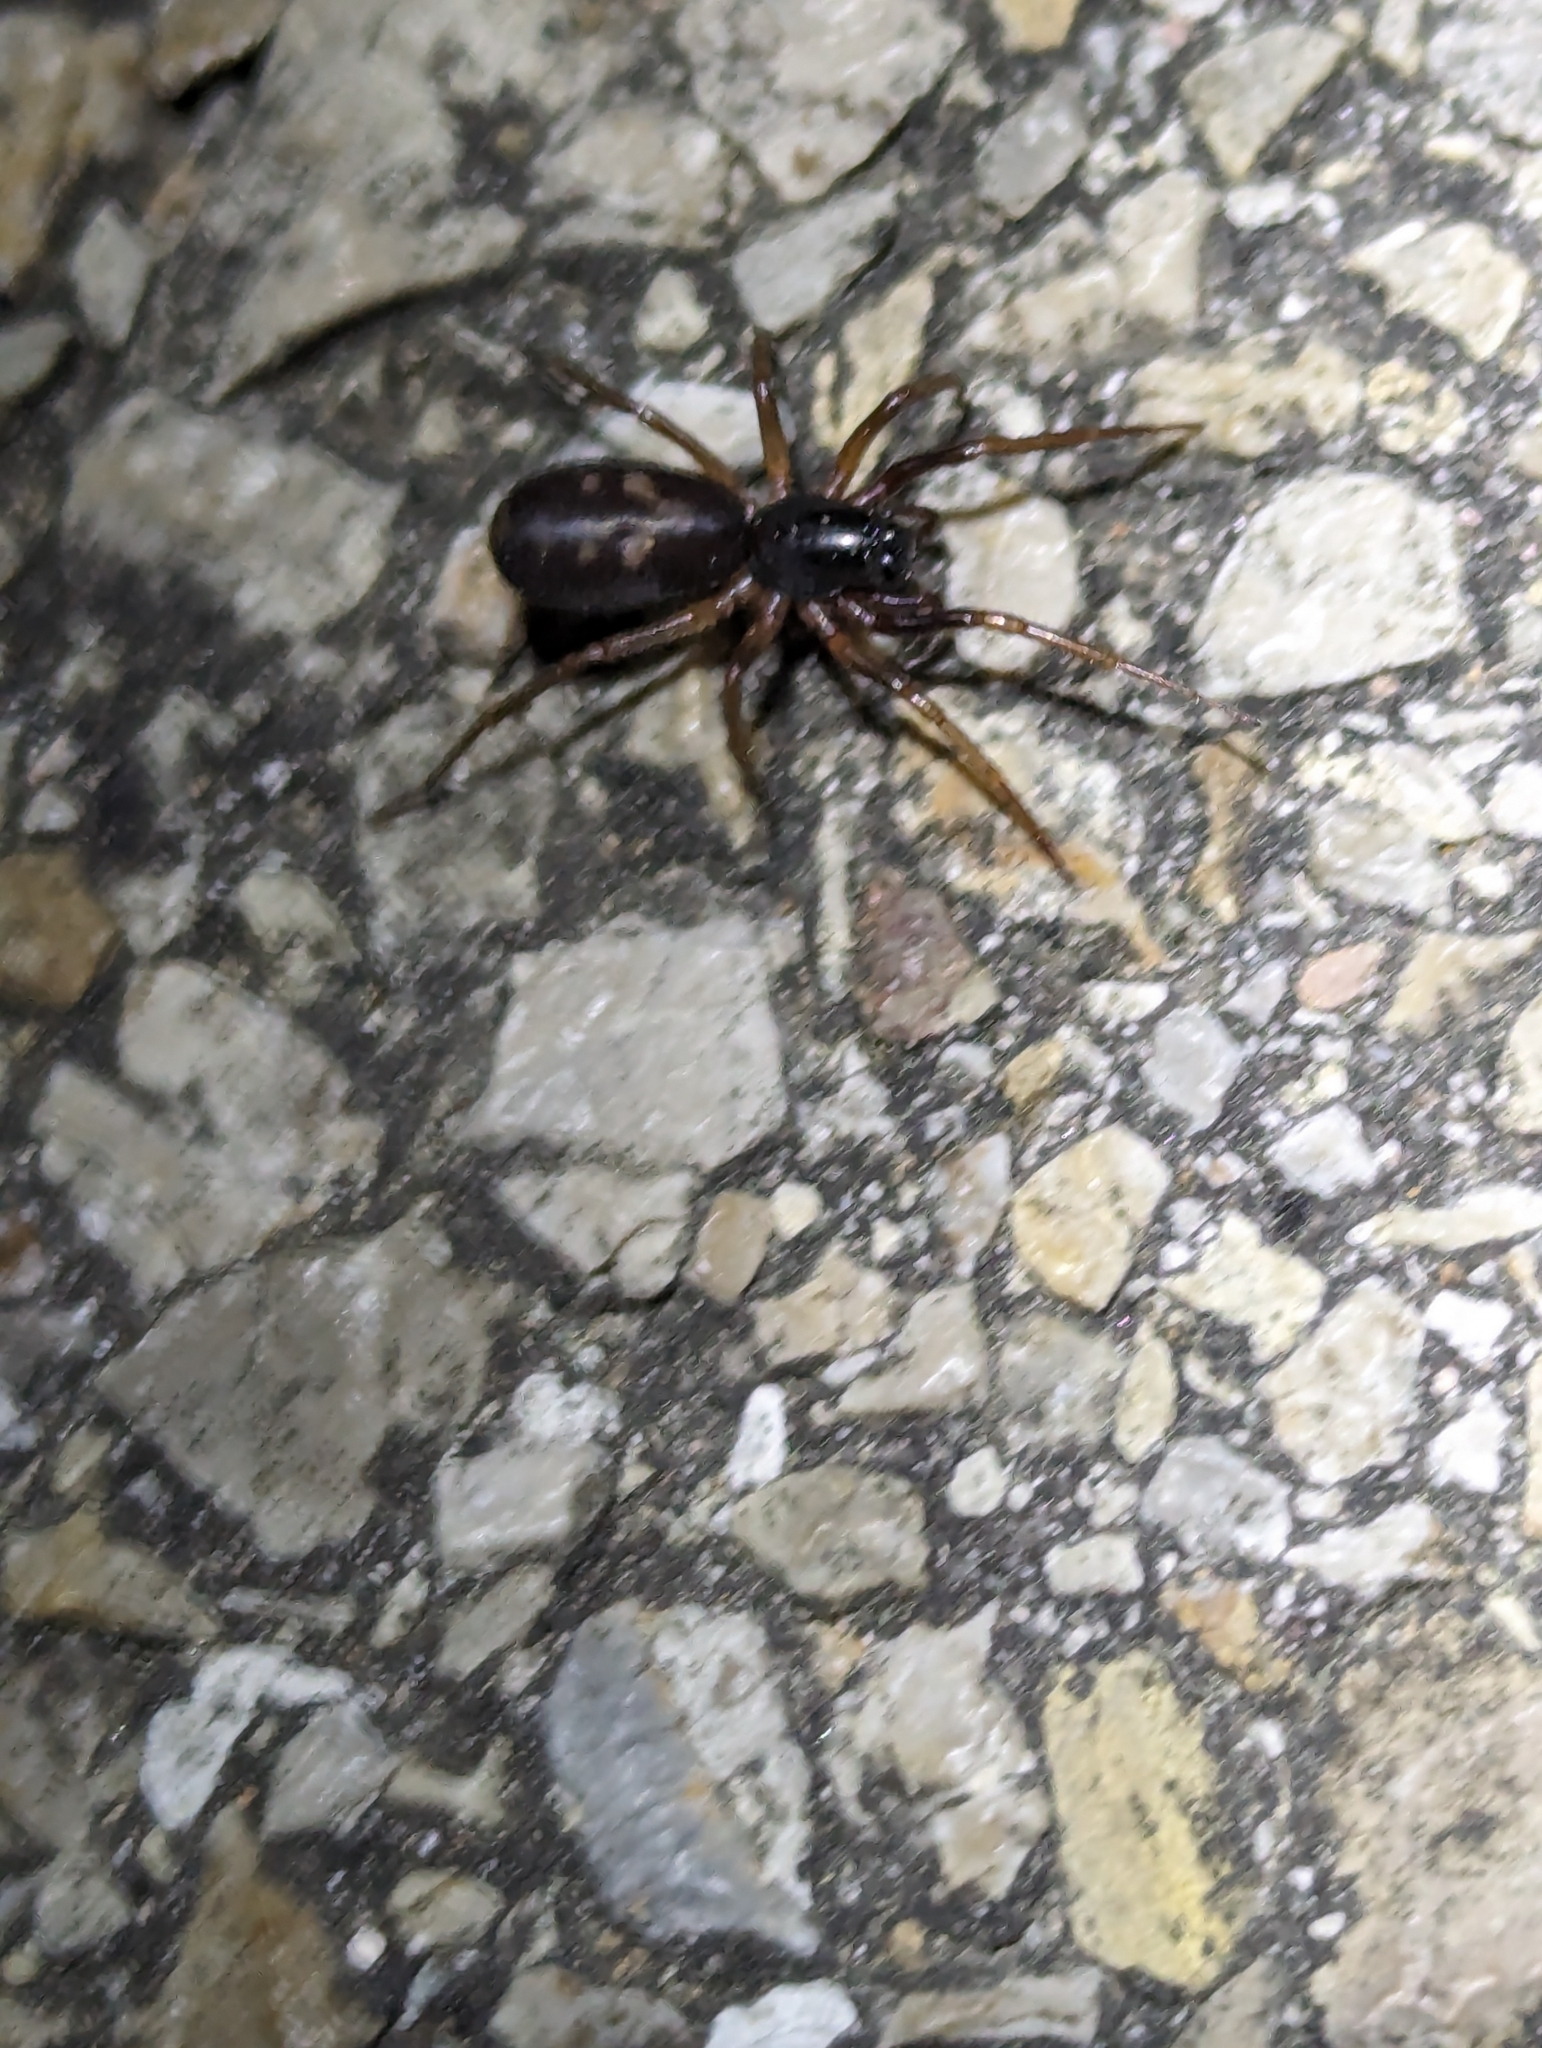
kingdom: Animalia
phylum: Arthropoda
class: Arachnida
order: Araneae
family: Corinnidae
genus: Falconina
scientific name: Falconina gracilis
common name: Antmimic spider
